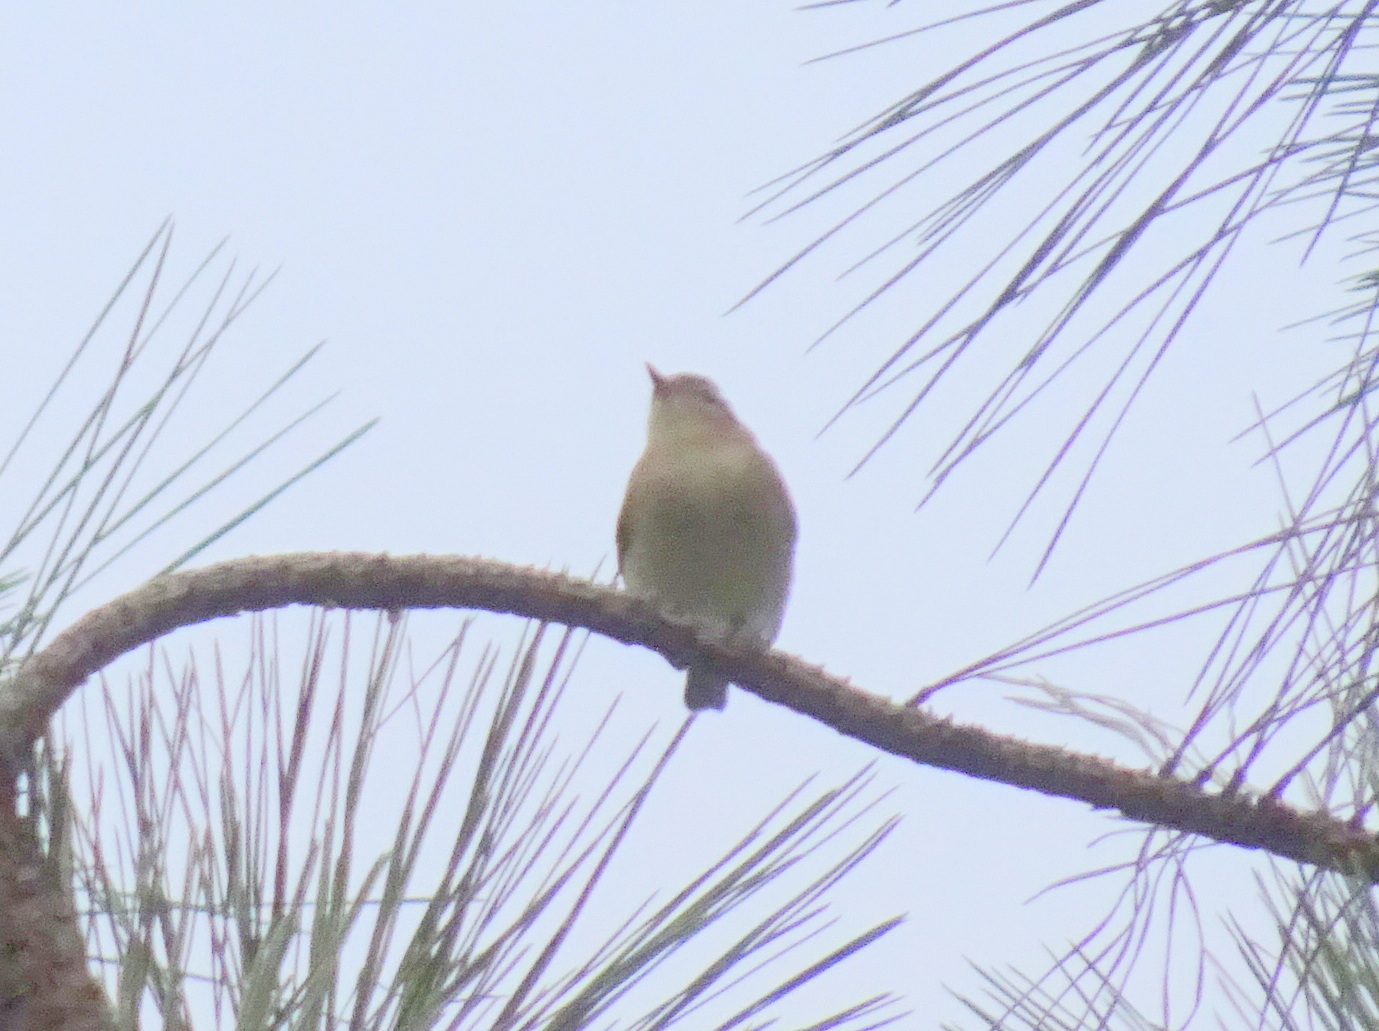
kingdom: Animalia
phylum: Chordata
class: Aves
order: Passeriformes
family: Vireonidae
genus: Vireo
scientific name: Vireo gilvus
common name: Warbling vireo
